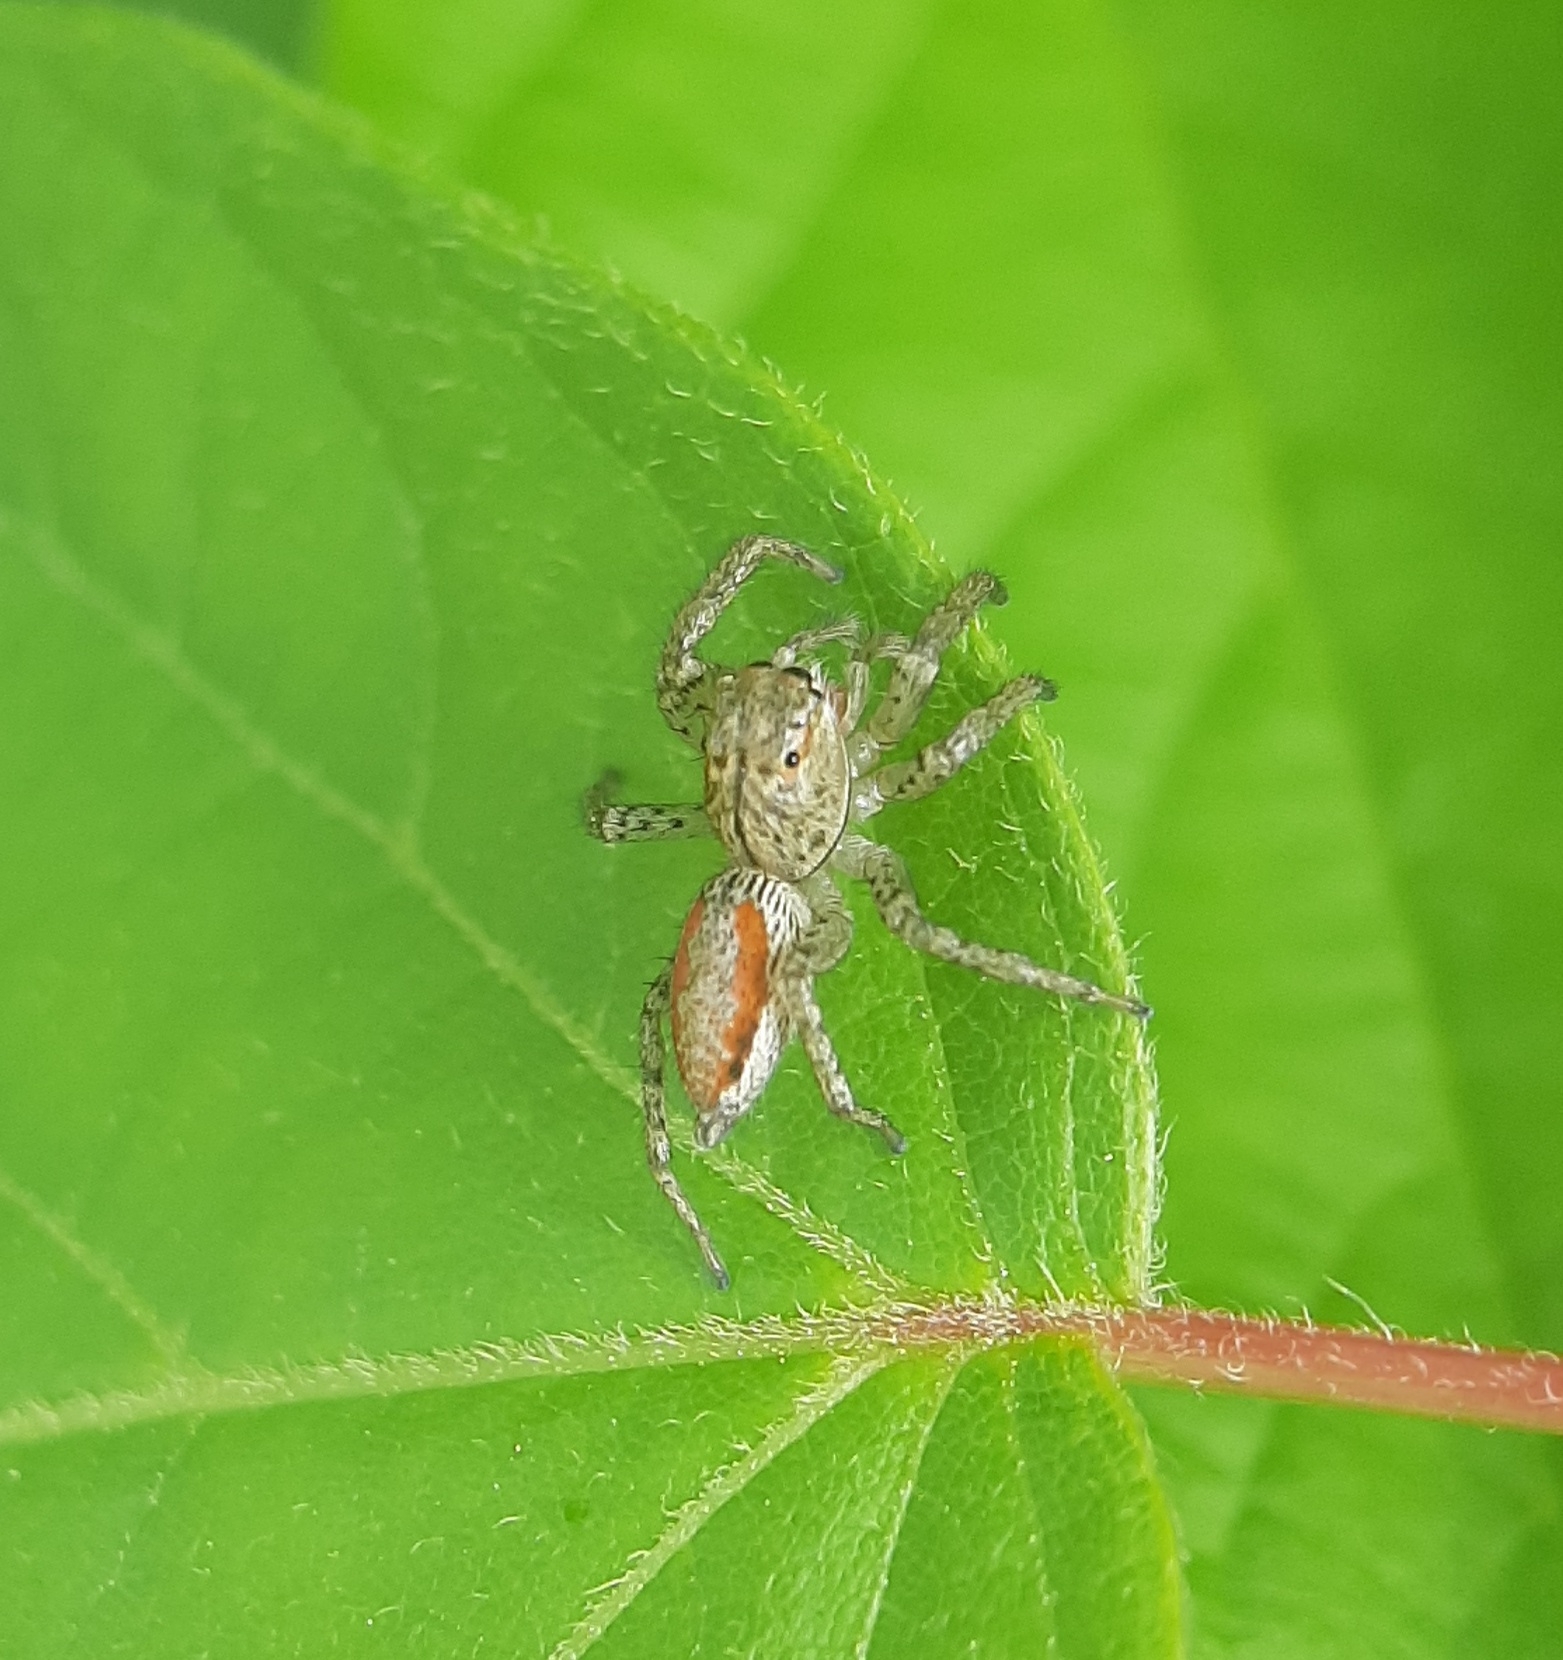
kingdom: Animalia
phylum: Arthropoda
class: Arachnida
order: Araneae
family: Salticidae
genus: Maevia
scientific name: Maevia inclemens
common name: Dimorphic jumper
